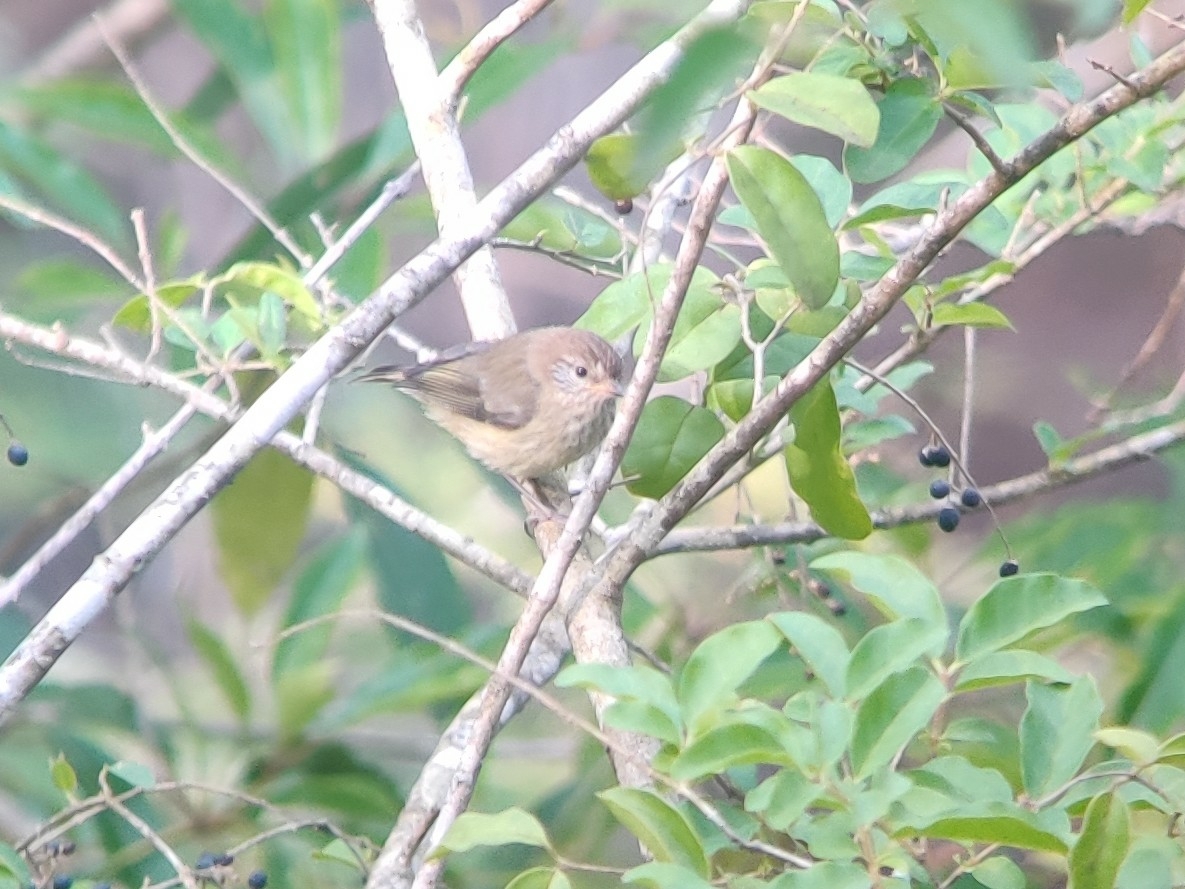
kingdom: Animalia
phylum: Chordata
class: Aves
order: Passeriformes
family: Acanthizidae
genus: Acanthiza
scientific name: Acanthiza lineata
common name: Striated thornbill
